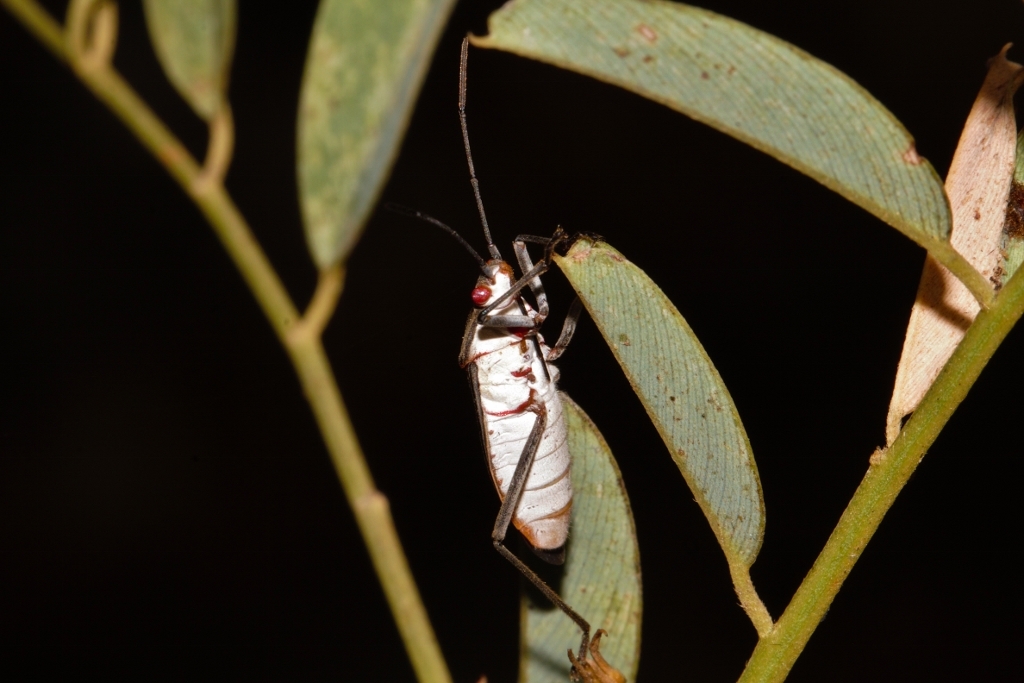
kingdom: Animalia
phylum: Arthropoda
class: Insecta
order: Hemiptera
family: Rhopalidae
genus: Leptocoris
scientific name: Leptocoris amictus
